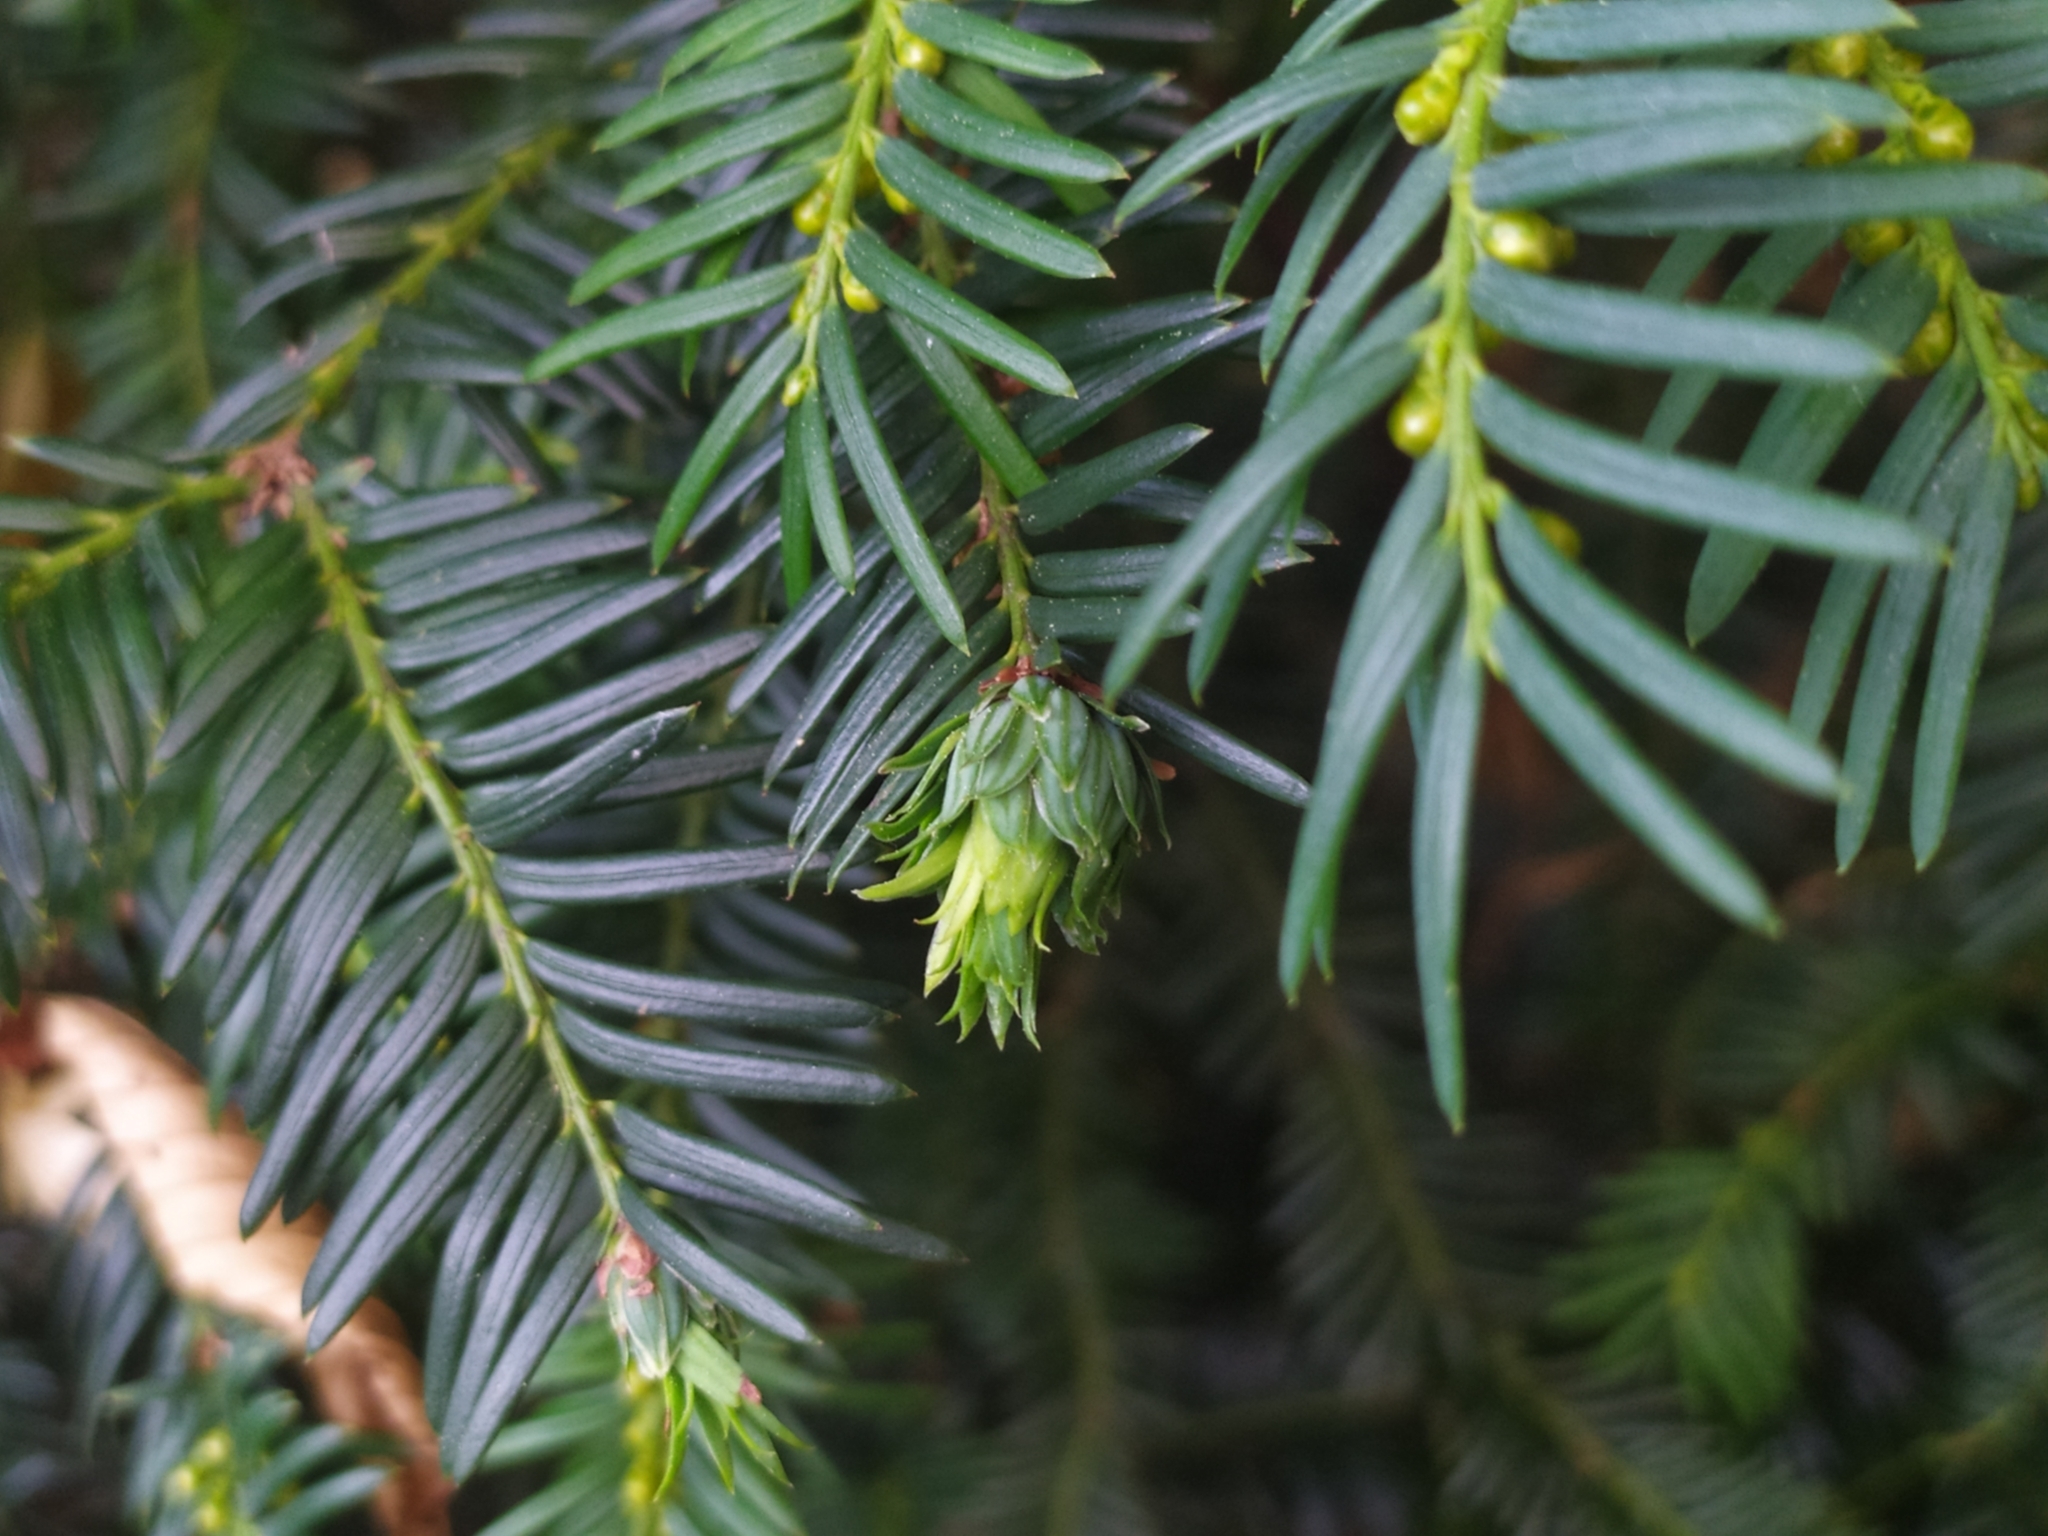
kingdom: Animalia
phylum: Arthropoda
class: Insecta
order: Diptera
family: Cecidomyiidae
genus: Taxomyia
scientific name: Taxomyia taxi
